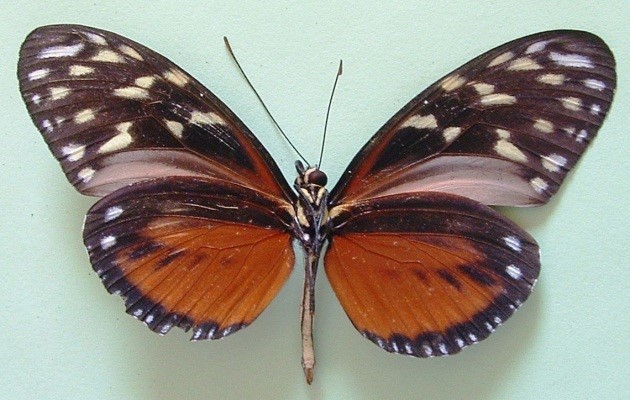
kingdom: Animalia
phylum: Arthropoda
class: Insecta
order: Lepidoptera
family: Nymphalidae
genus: Heliconius
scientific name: Heliconius hecale
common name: Tiger longwing
